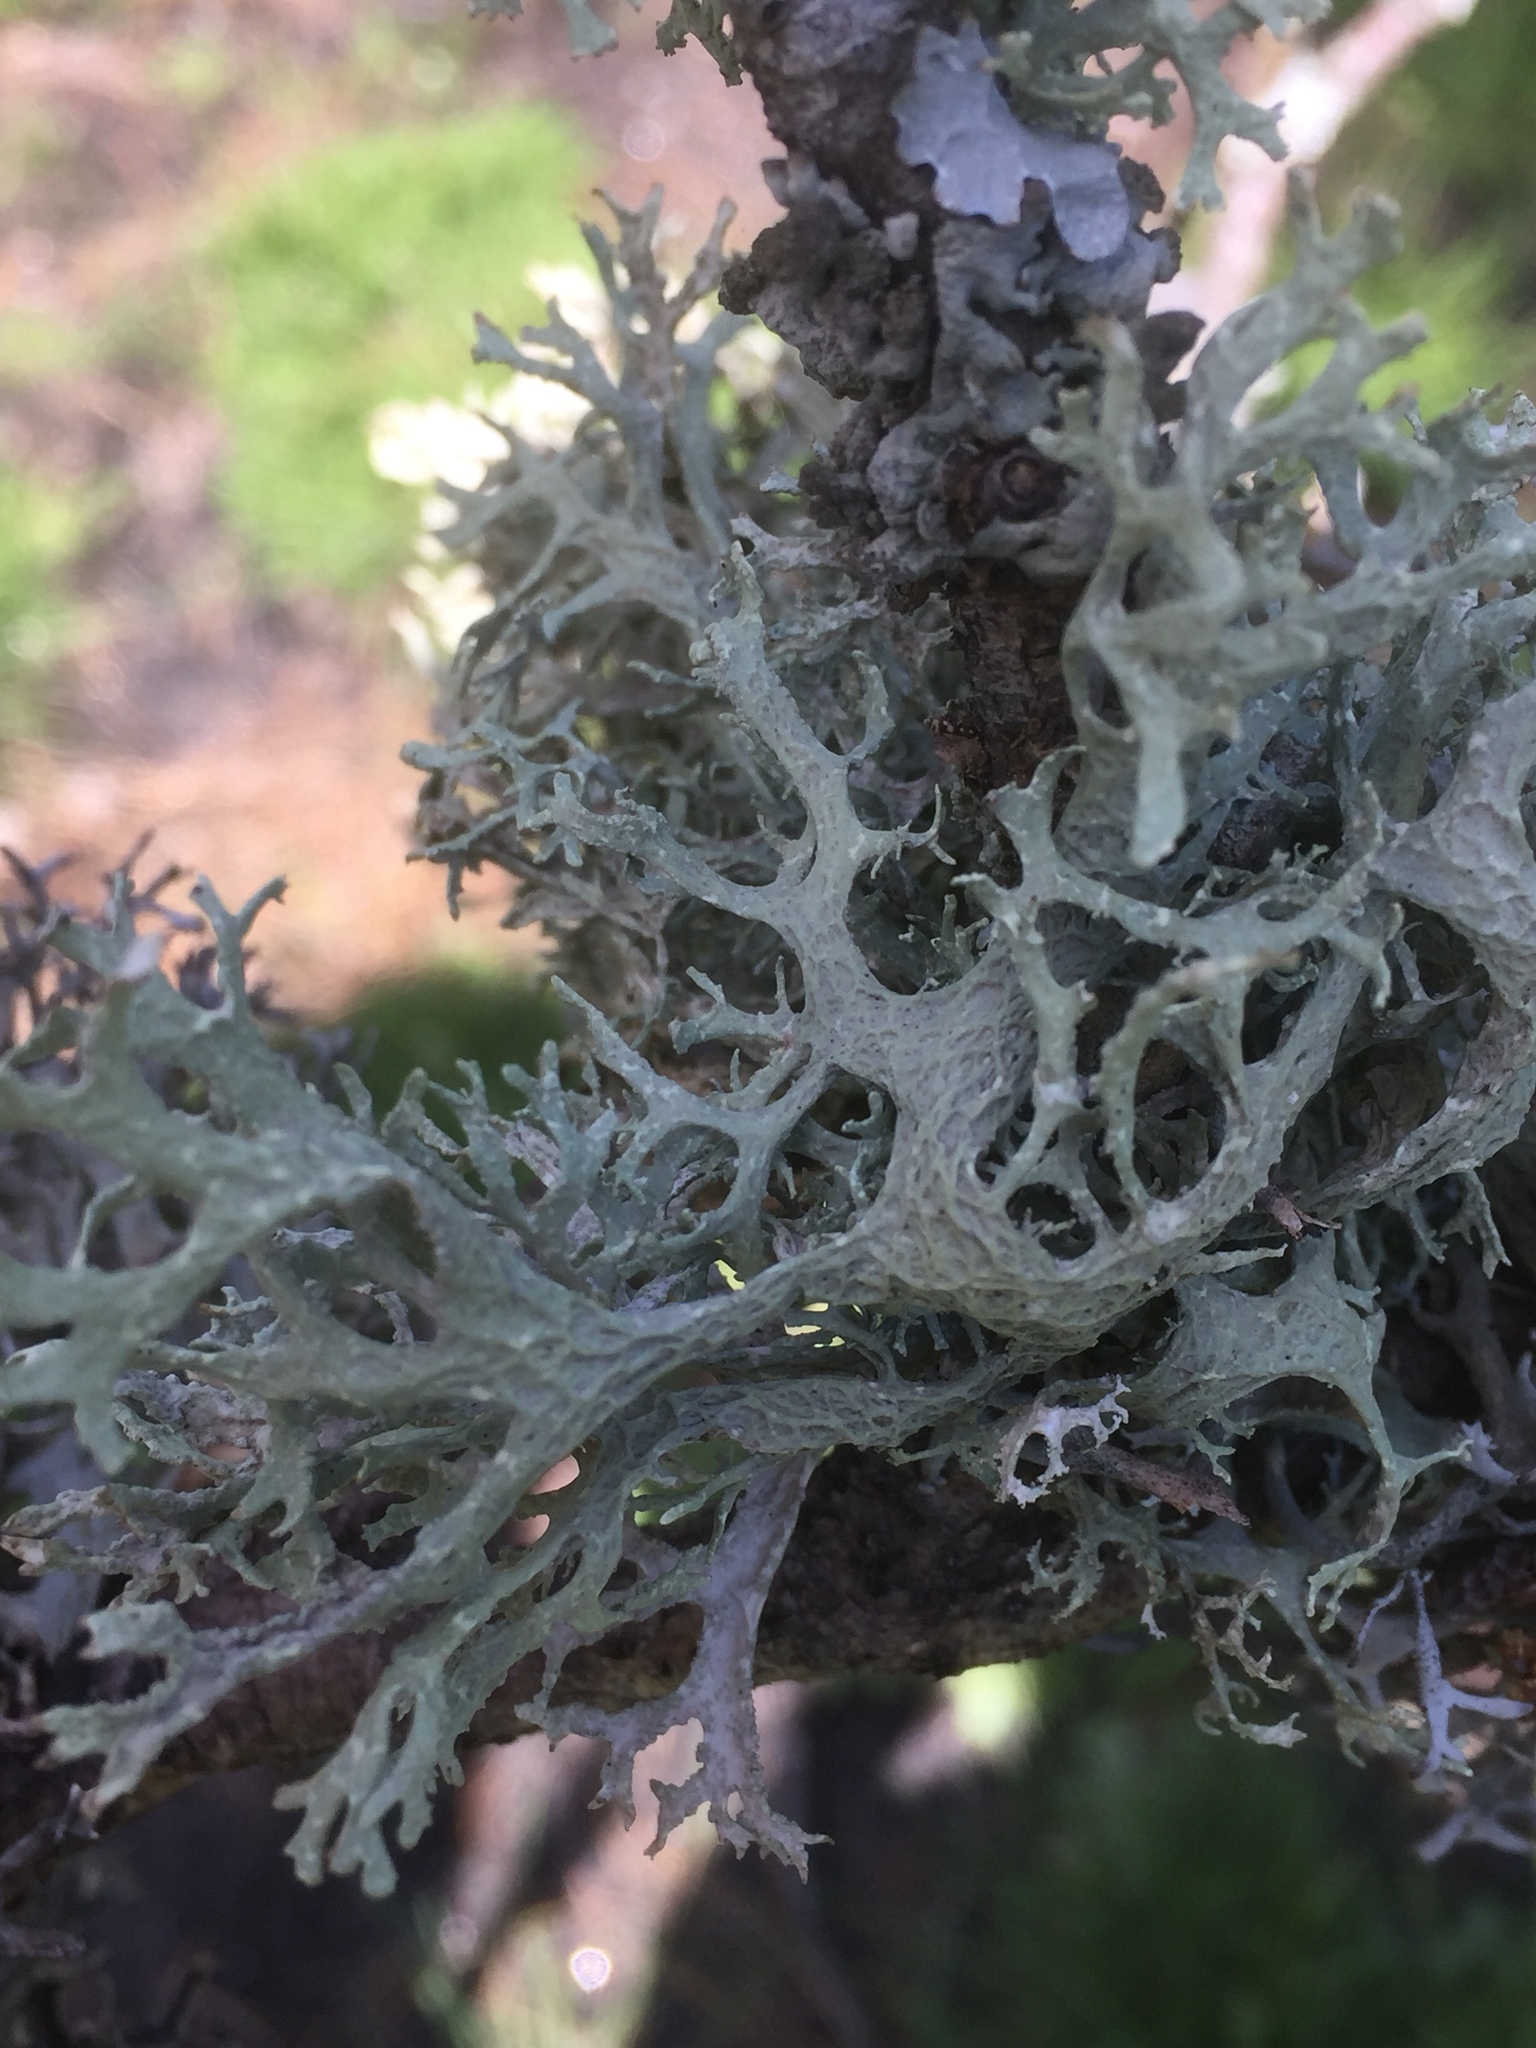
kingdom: Fungi
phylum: Ascomycota
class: Lecanoromycetes
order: Lecanorales
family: Parmeliaceae
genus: Evernia
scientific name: Evernia prunastri
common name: Oak moss
